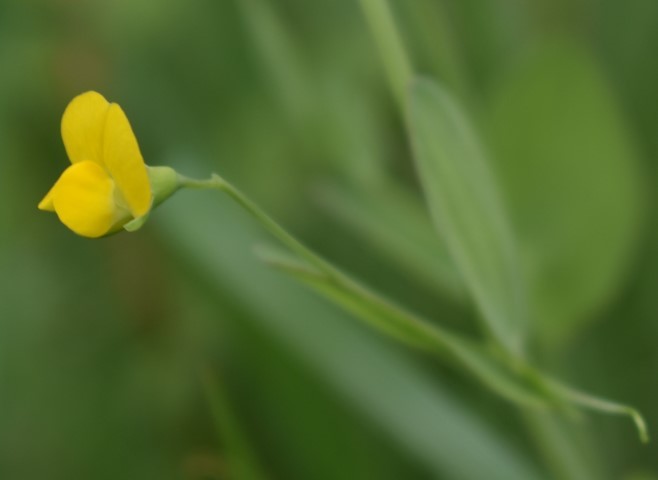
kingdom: Plantae
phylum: Tracheophyta
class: Magnoliopsida
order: Fabales
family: Fabaceae
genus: Lathyrus
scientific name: Lathyrus aphaca
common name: Yellow vetchling
